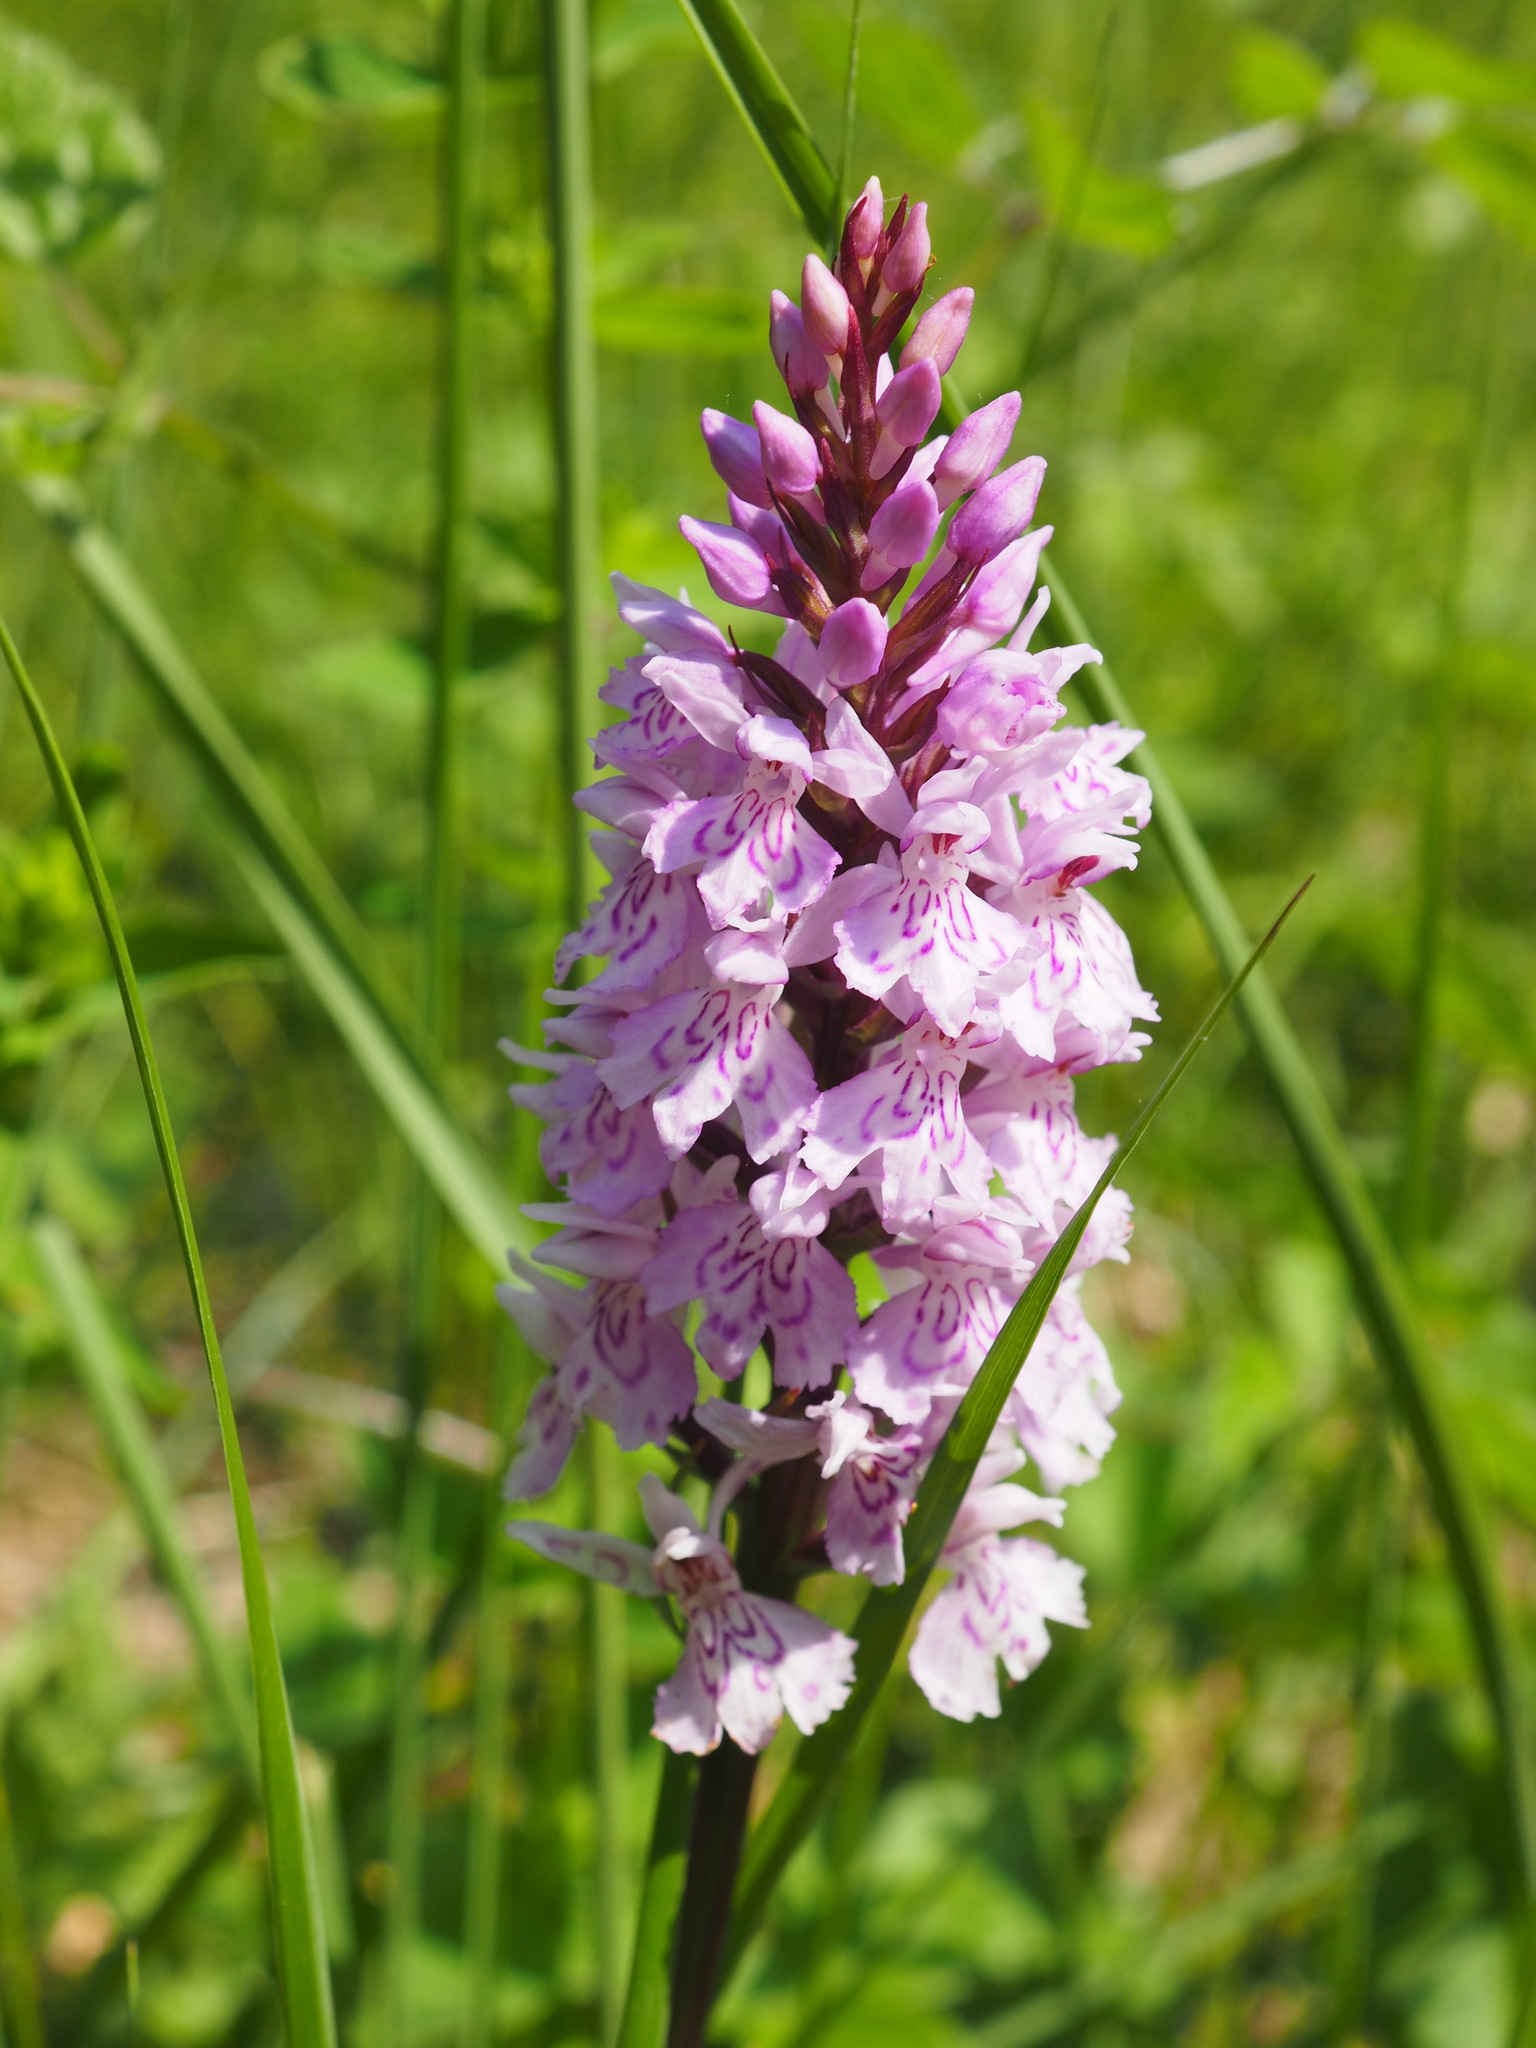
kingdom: Plantae
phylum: Tracheophyta
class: Liliopsida
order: Asparagales
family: Orchidaceae
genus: Dactylorhiza
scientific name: Dactylorhiza maculata
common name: Heath spotted-orchid
